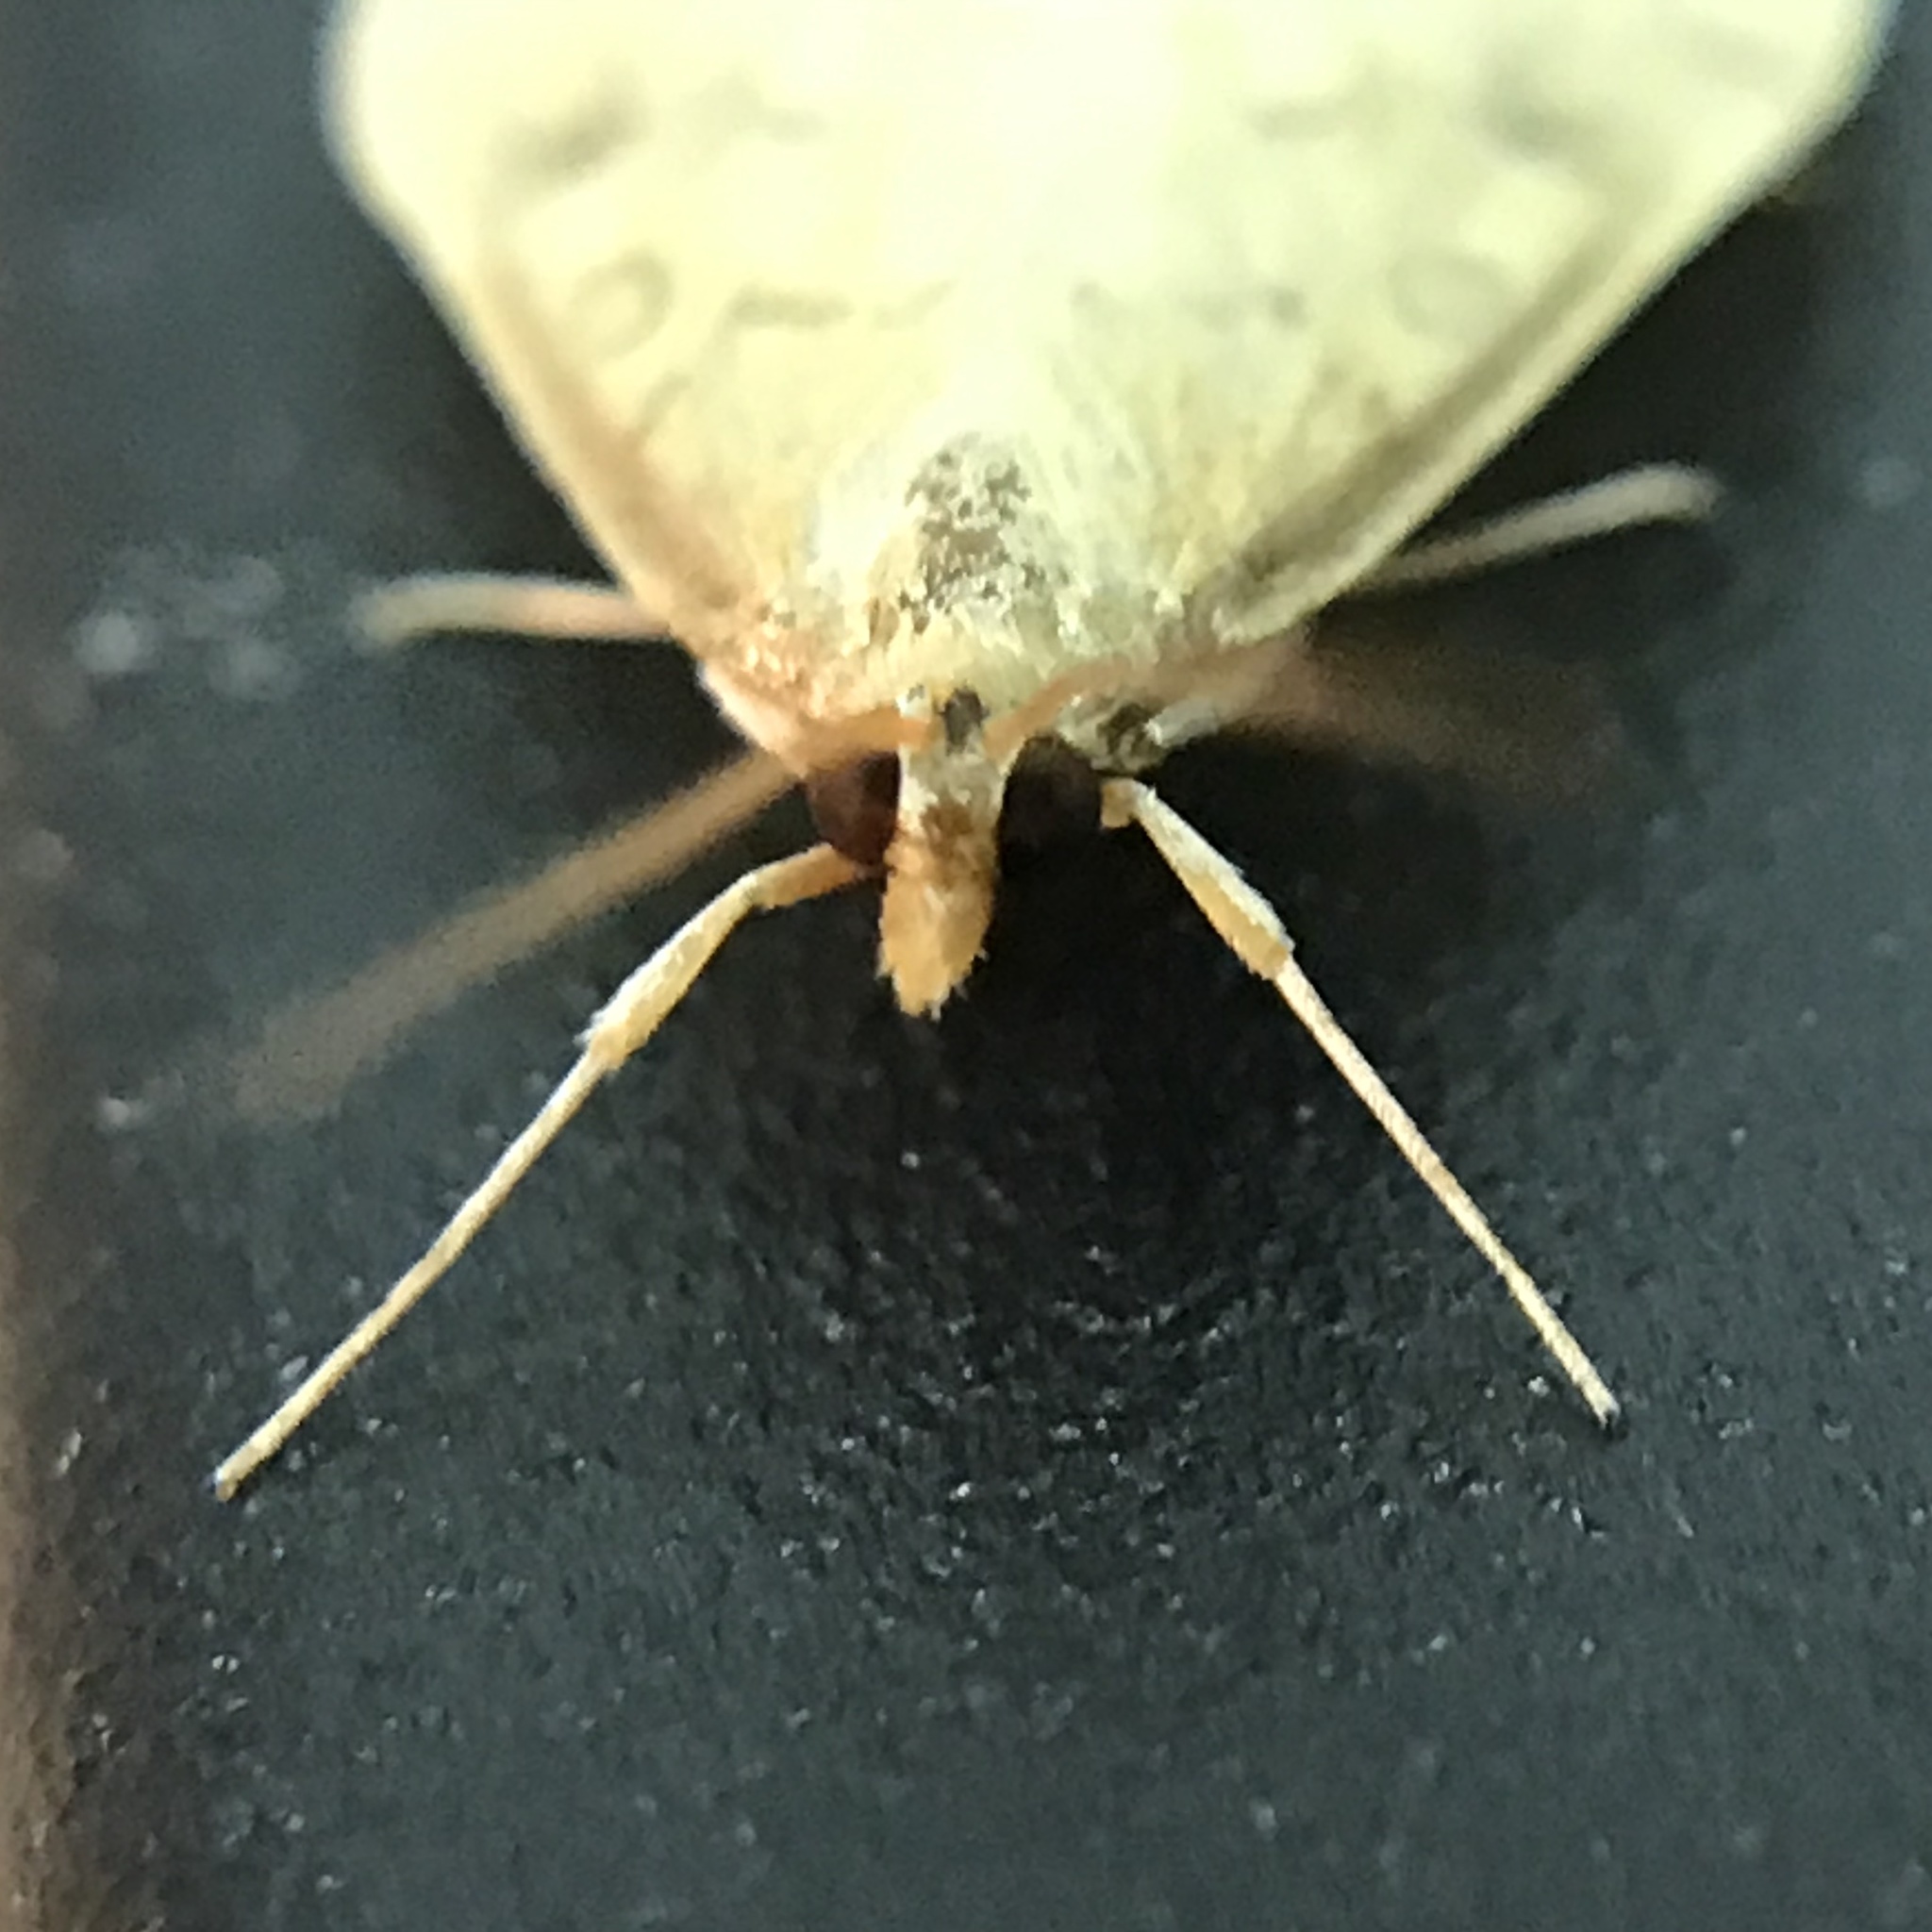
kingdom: Animalia
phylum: Arthropoda
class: Insecta
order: Lepidoptera
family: Crambidae
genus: Udea
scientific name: Udea rubigalis
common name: Celery leaftier moth
